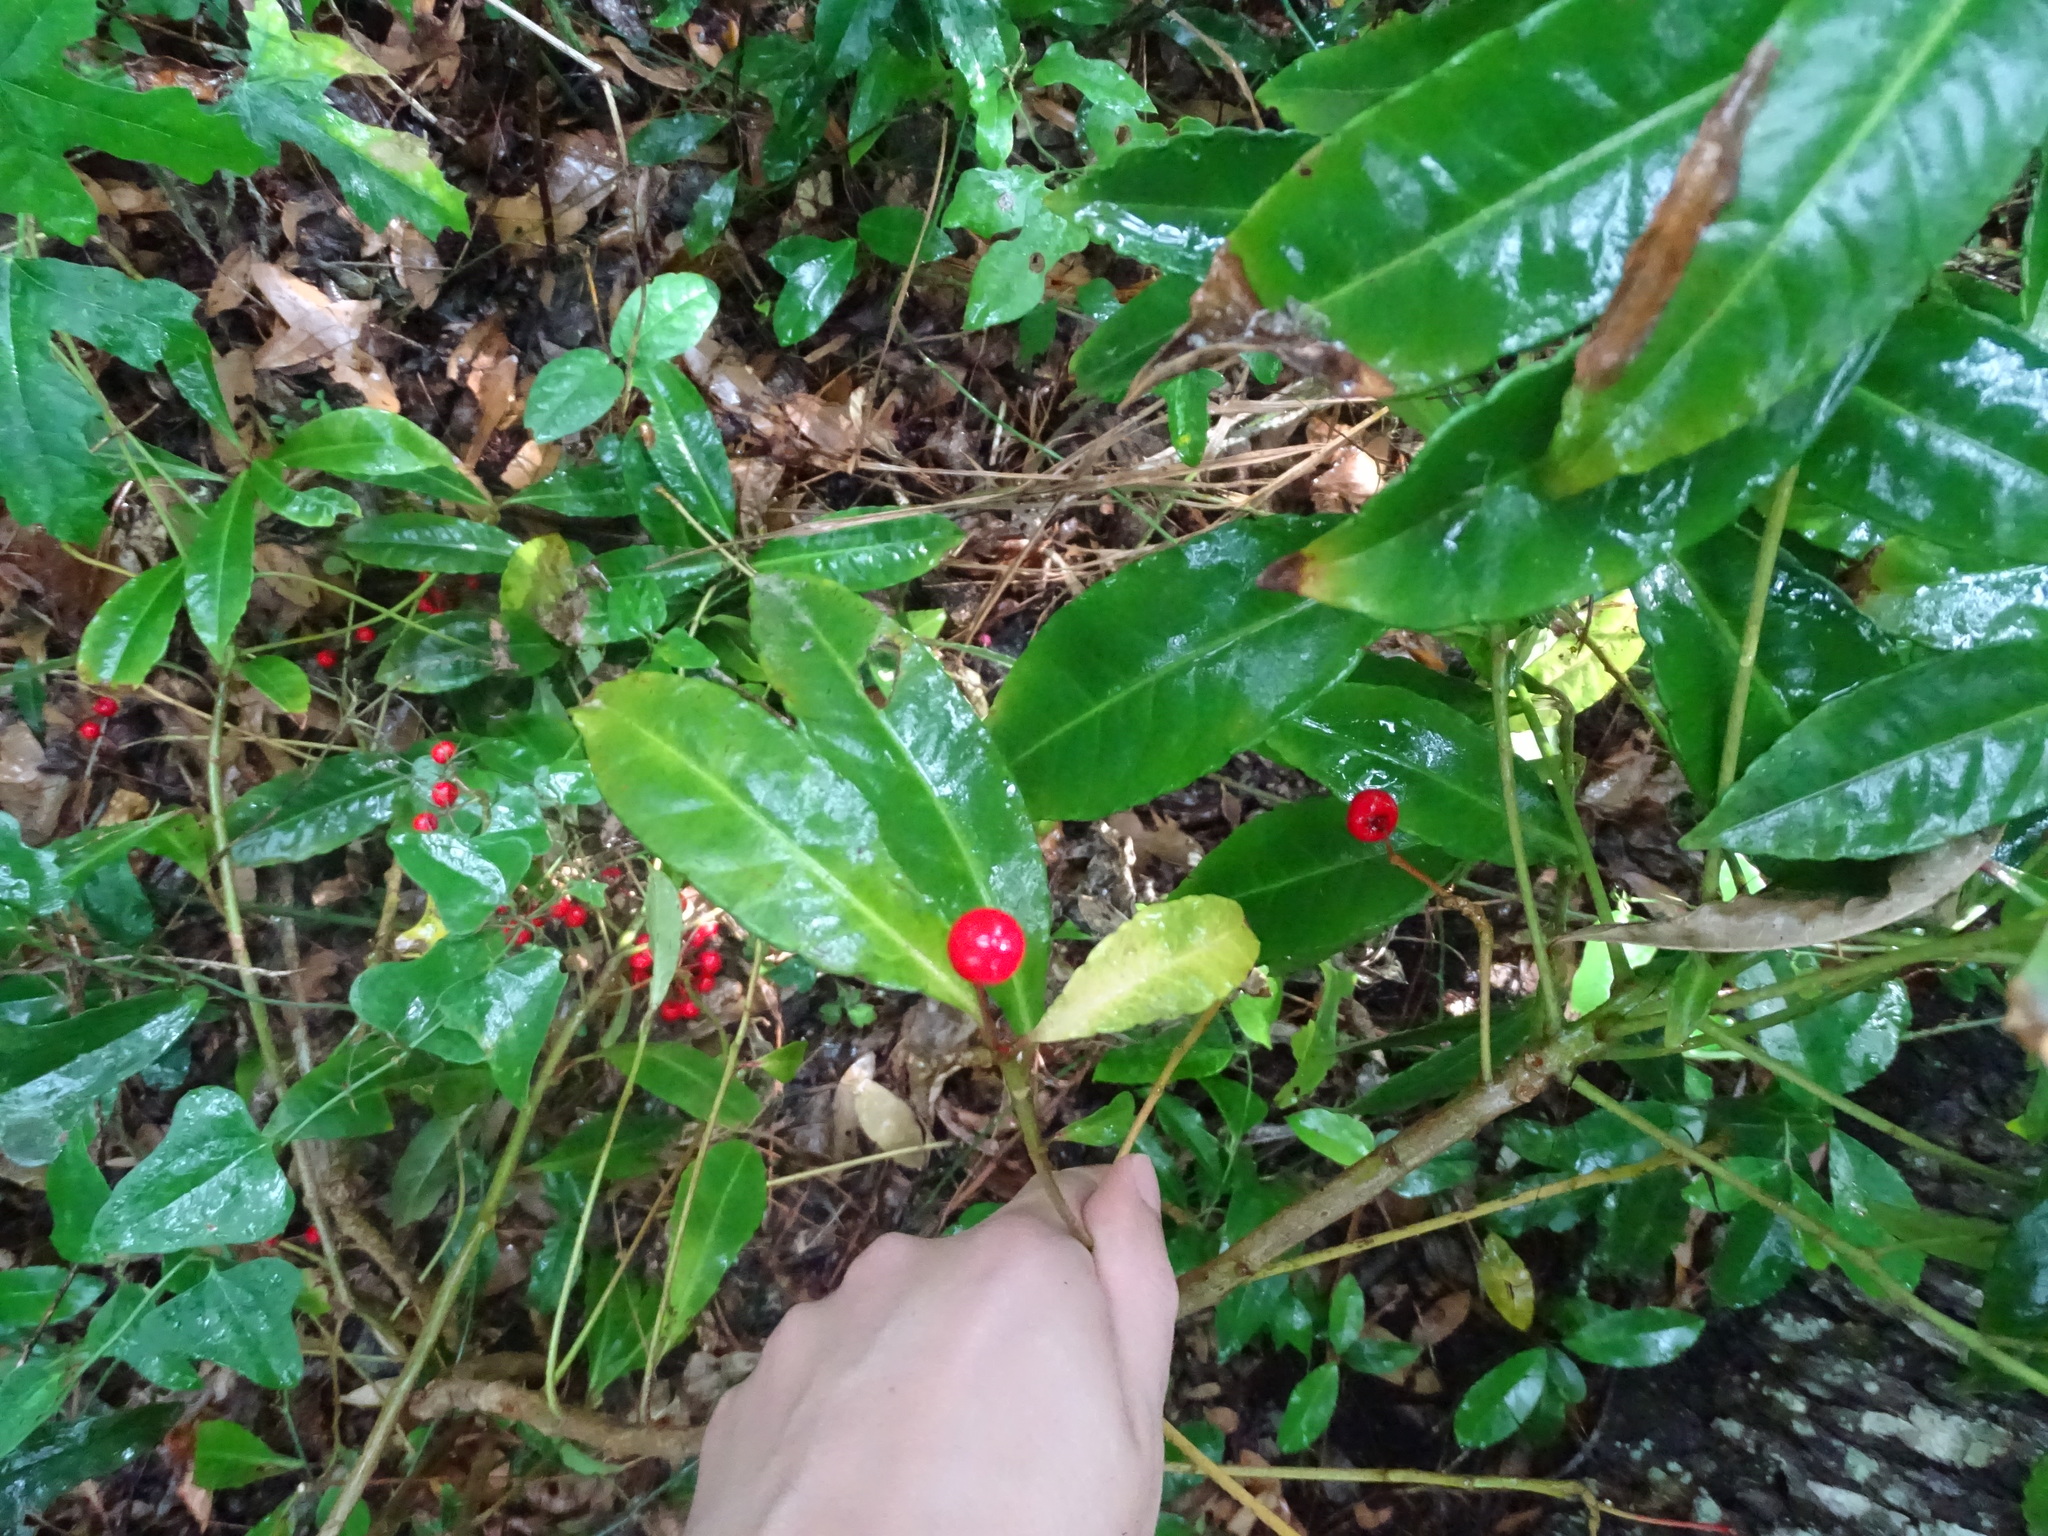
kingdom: Plantae
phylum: Tracheophyta
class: Magnoliopsida
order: Ericales
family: Primulaceae
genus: Ardisia
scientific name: Ardisia crenata
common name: Hen's eyes
